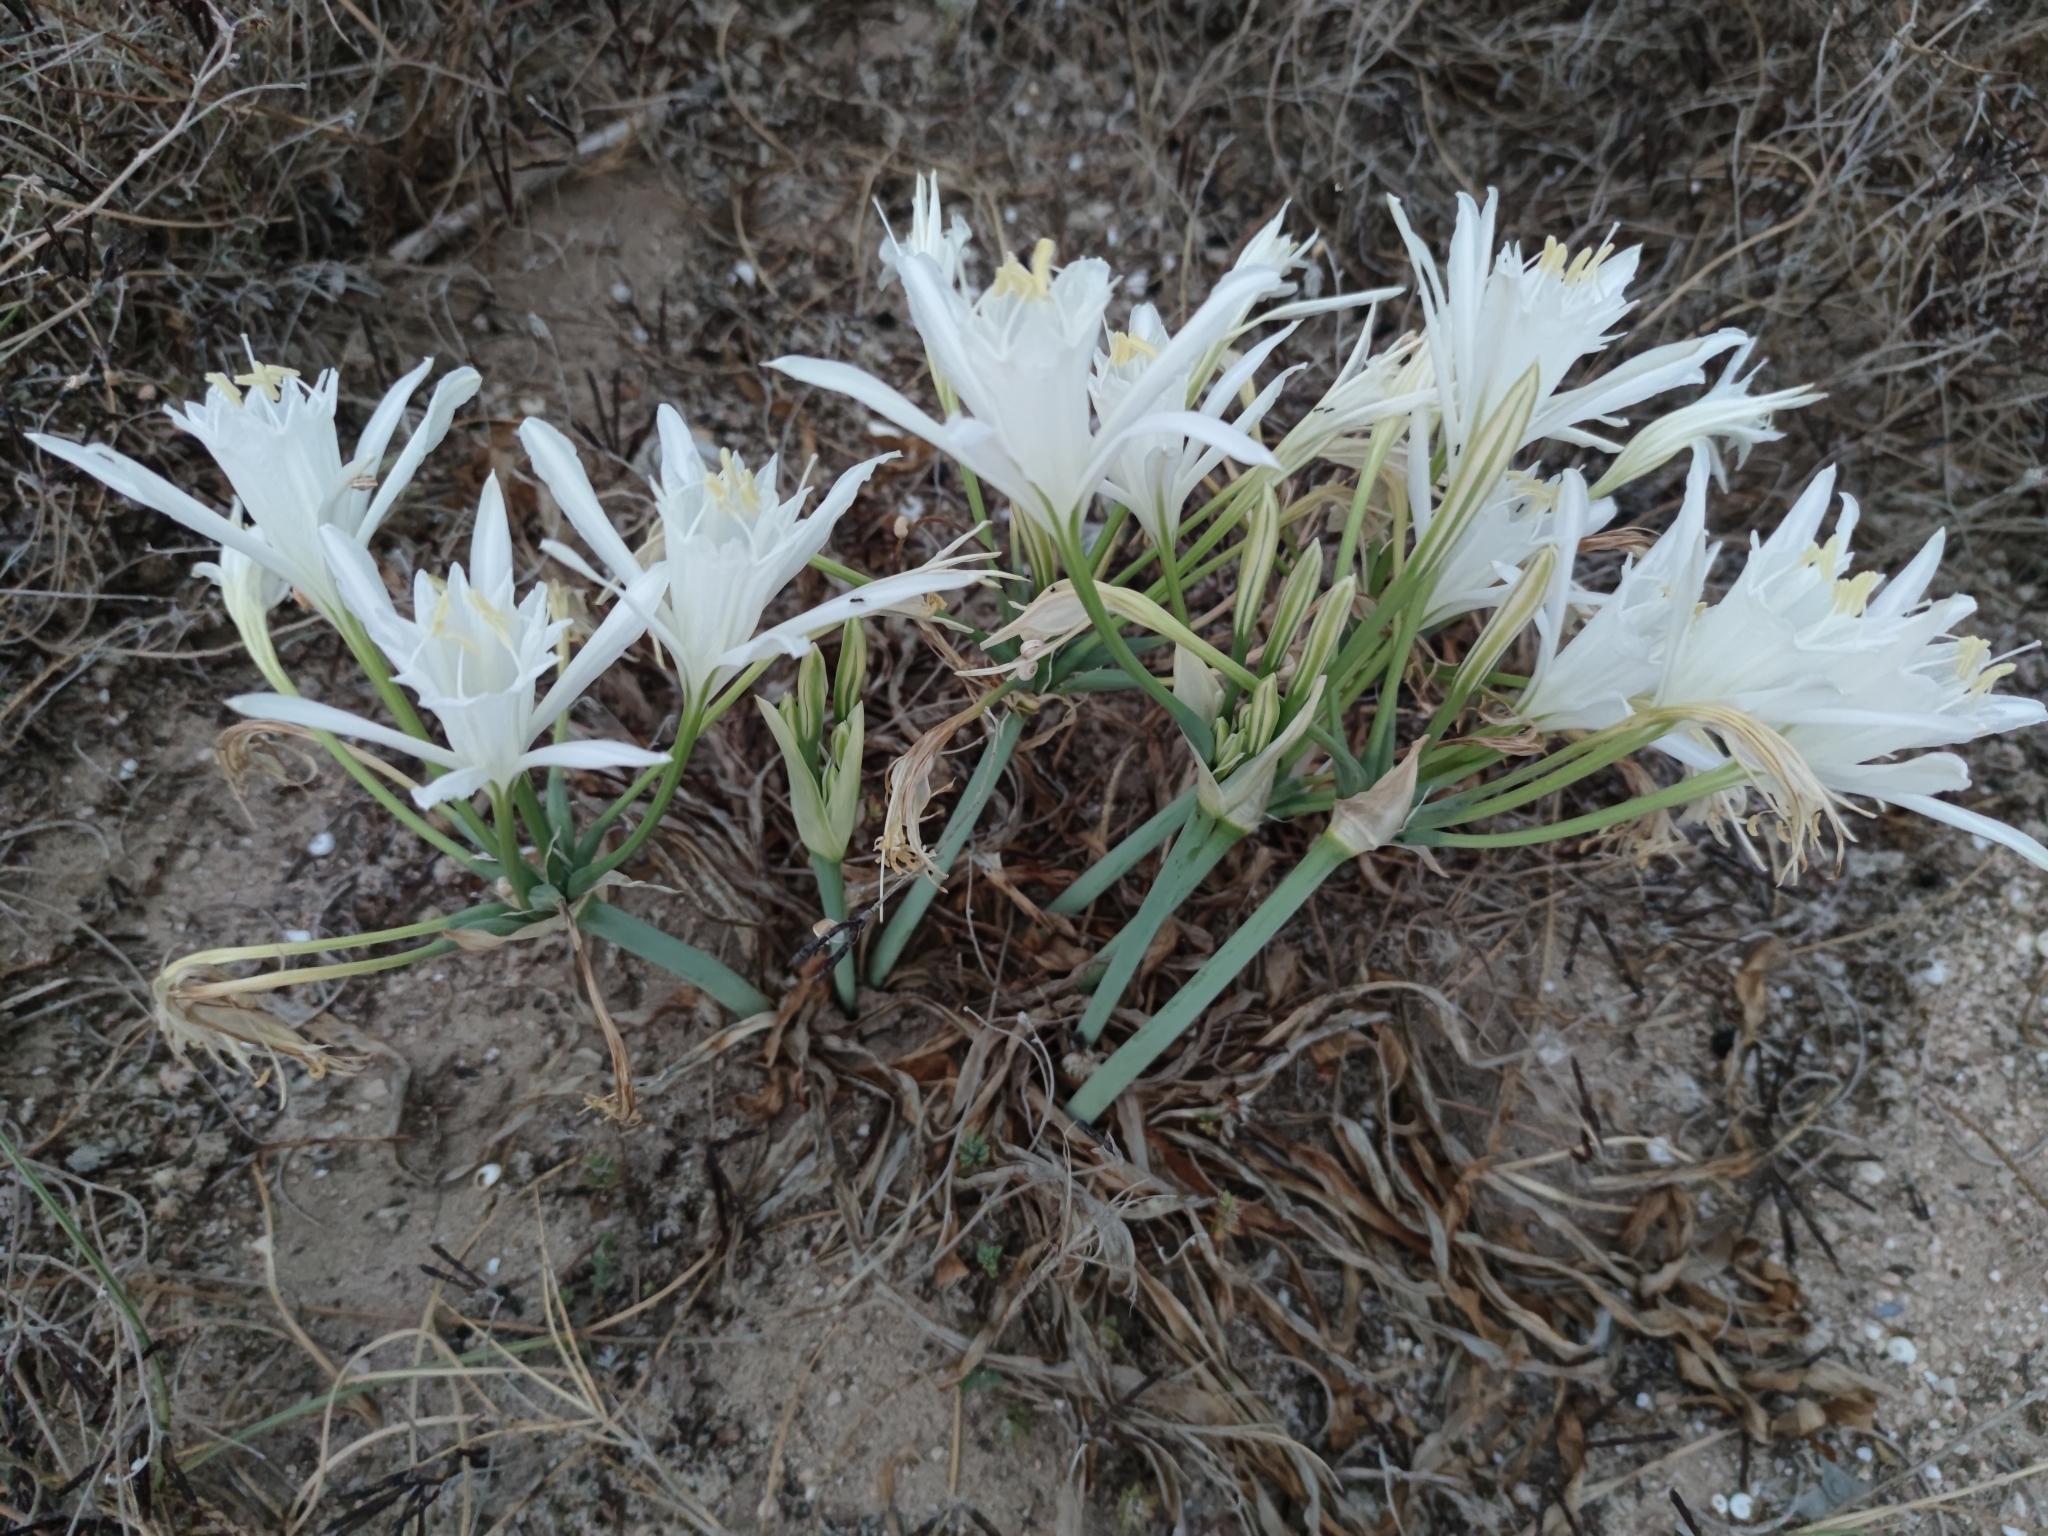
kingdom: Plantae
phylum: Tracheophyta
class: Liliopsida
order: Asparagales
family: Amaryllidaceae
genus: Pancratium
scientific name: Pancratium maritimum
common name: Sea-daffodil
